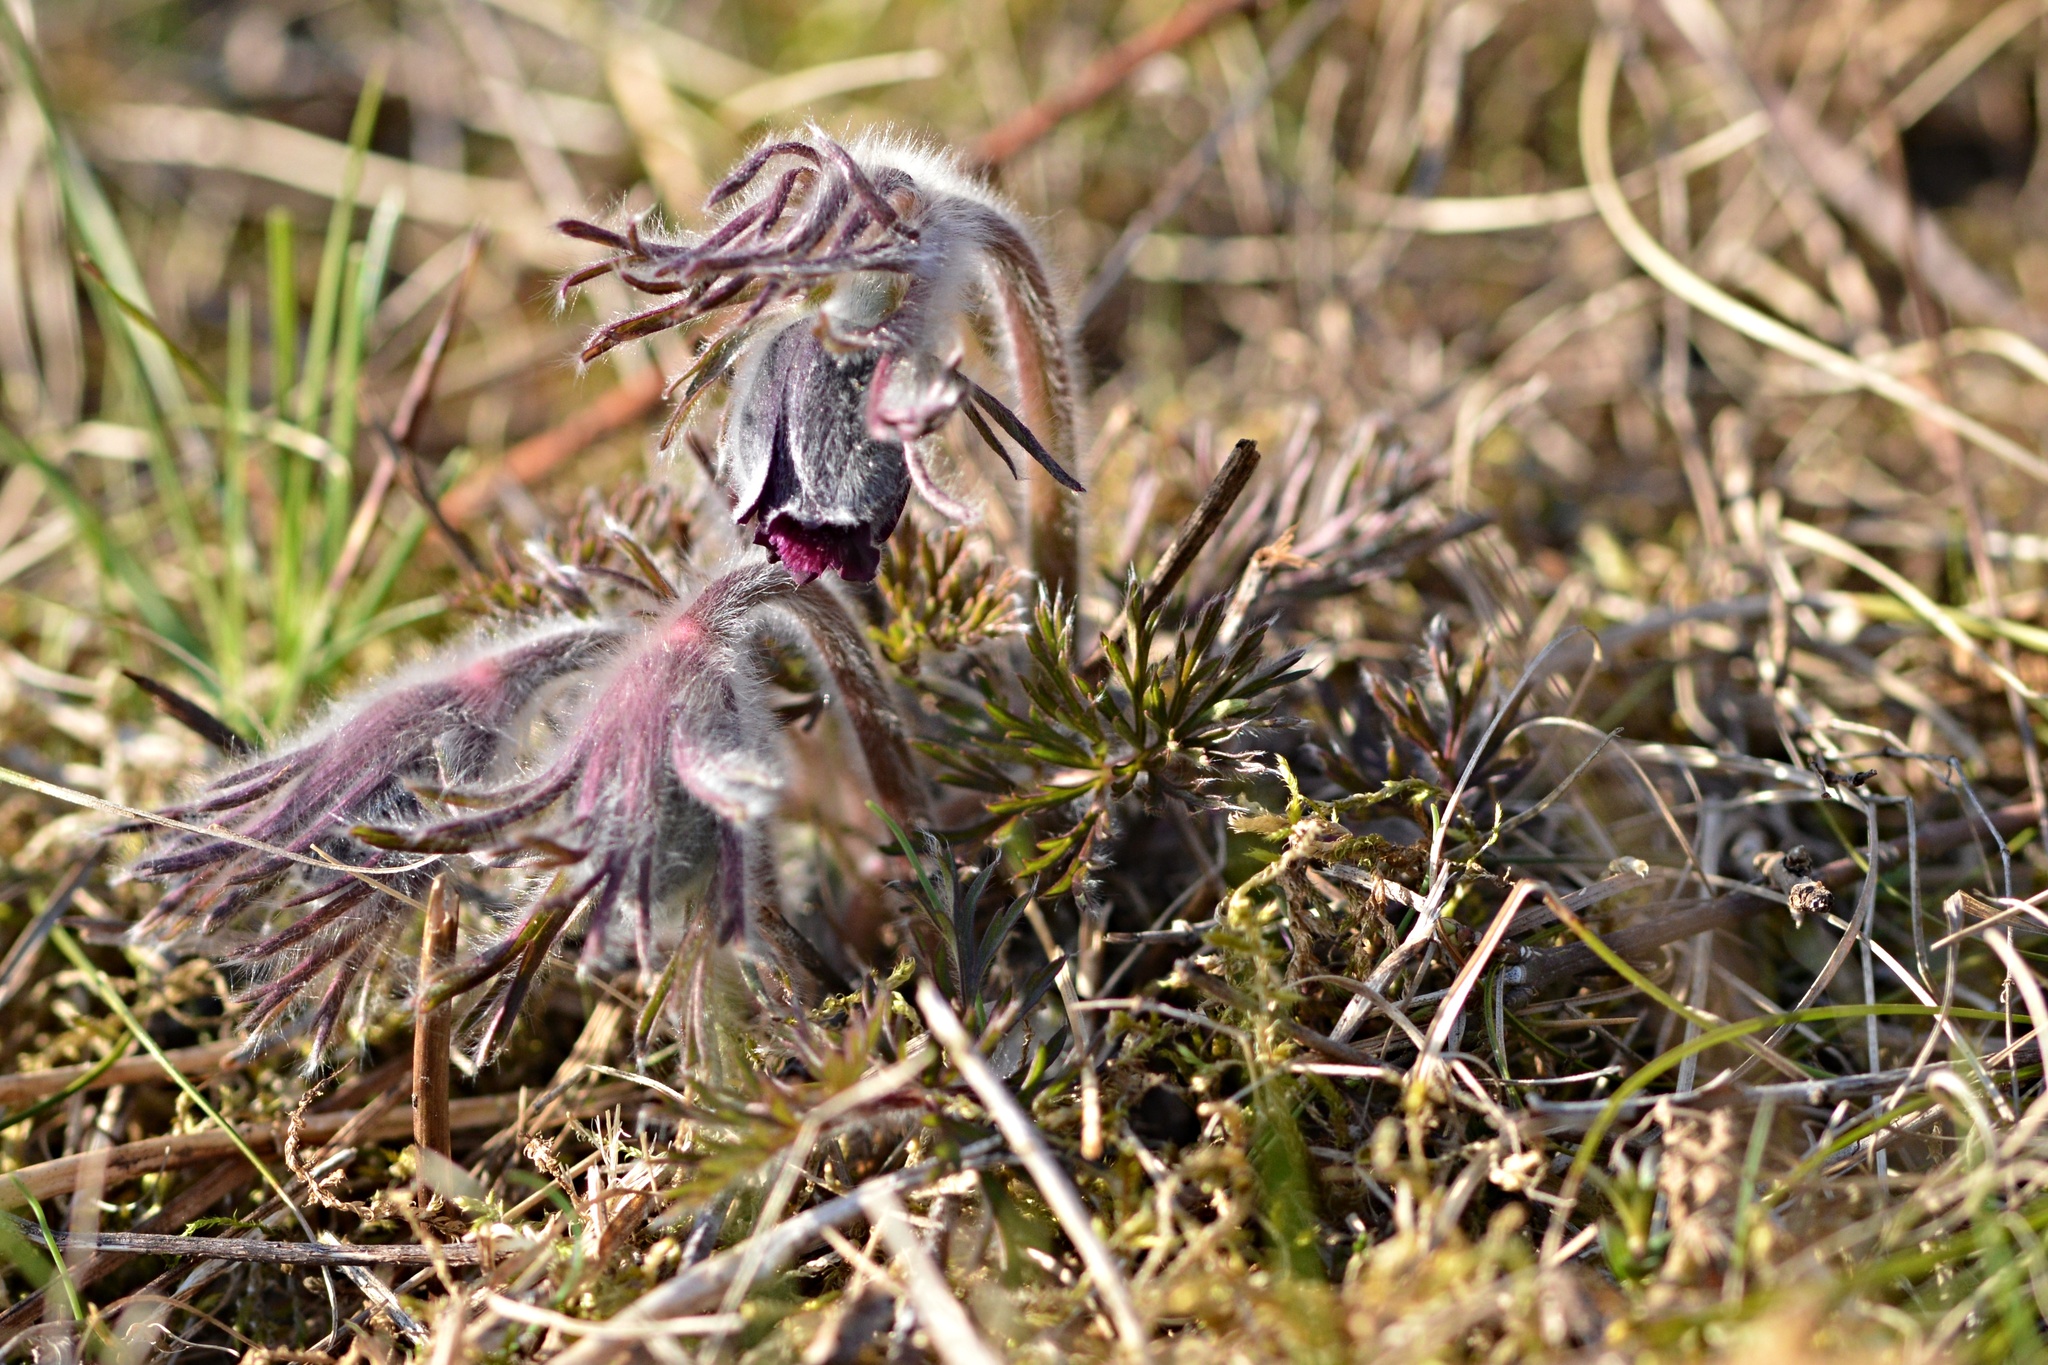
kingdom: Plantae
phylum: Tracheophyta
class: Magnoliopsida
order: Ranunculales
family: Ranunculaceae
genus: Pulsatilla
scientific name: Pulsatilla pratensis
